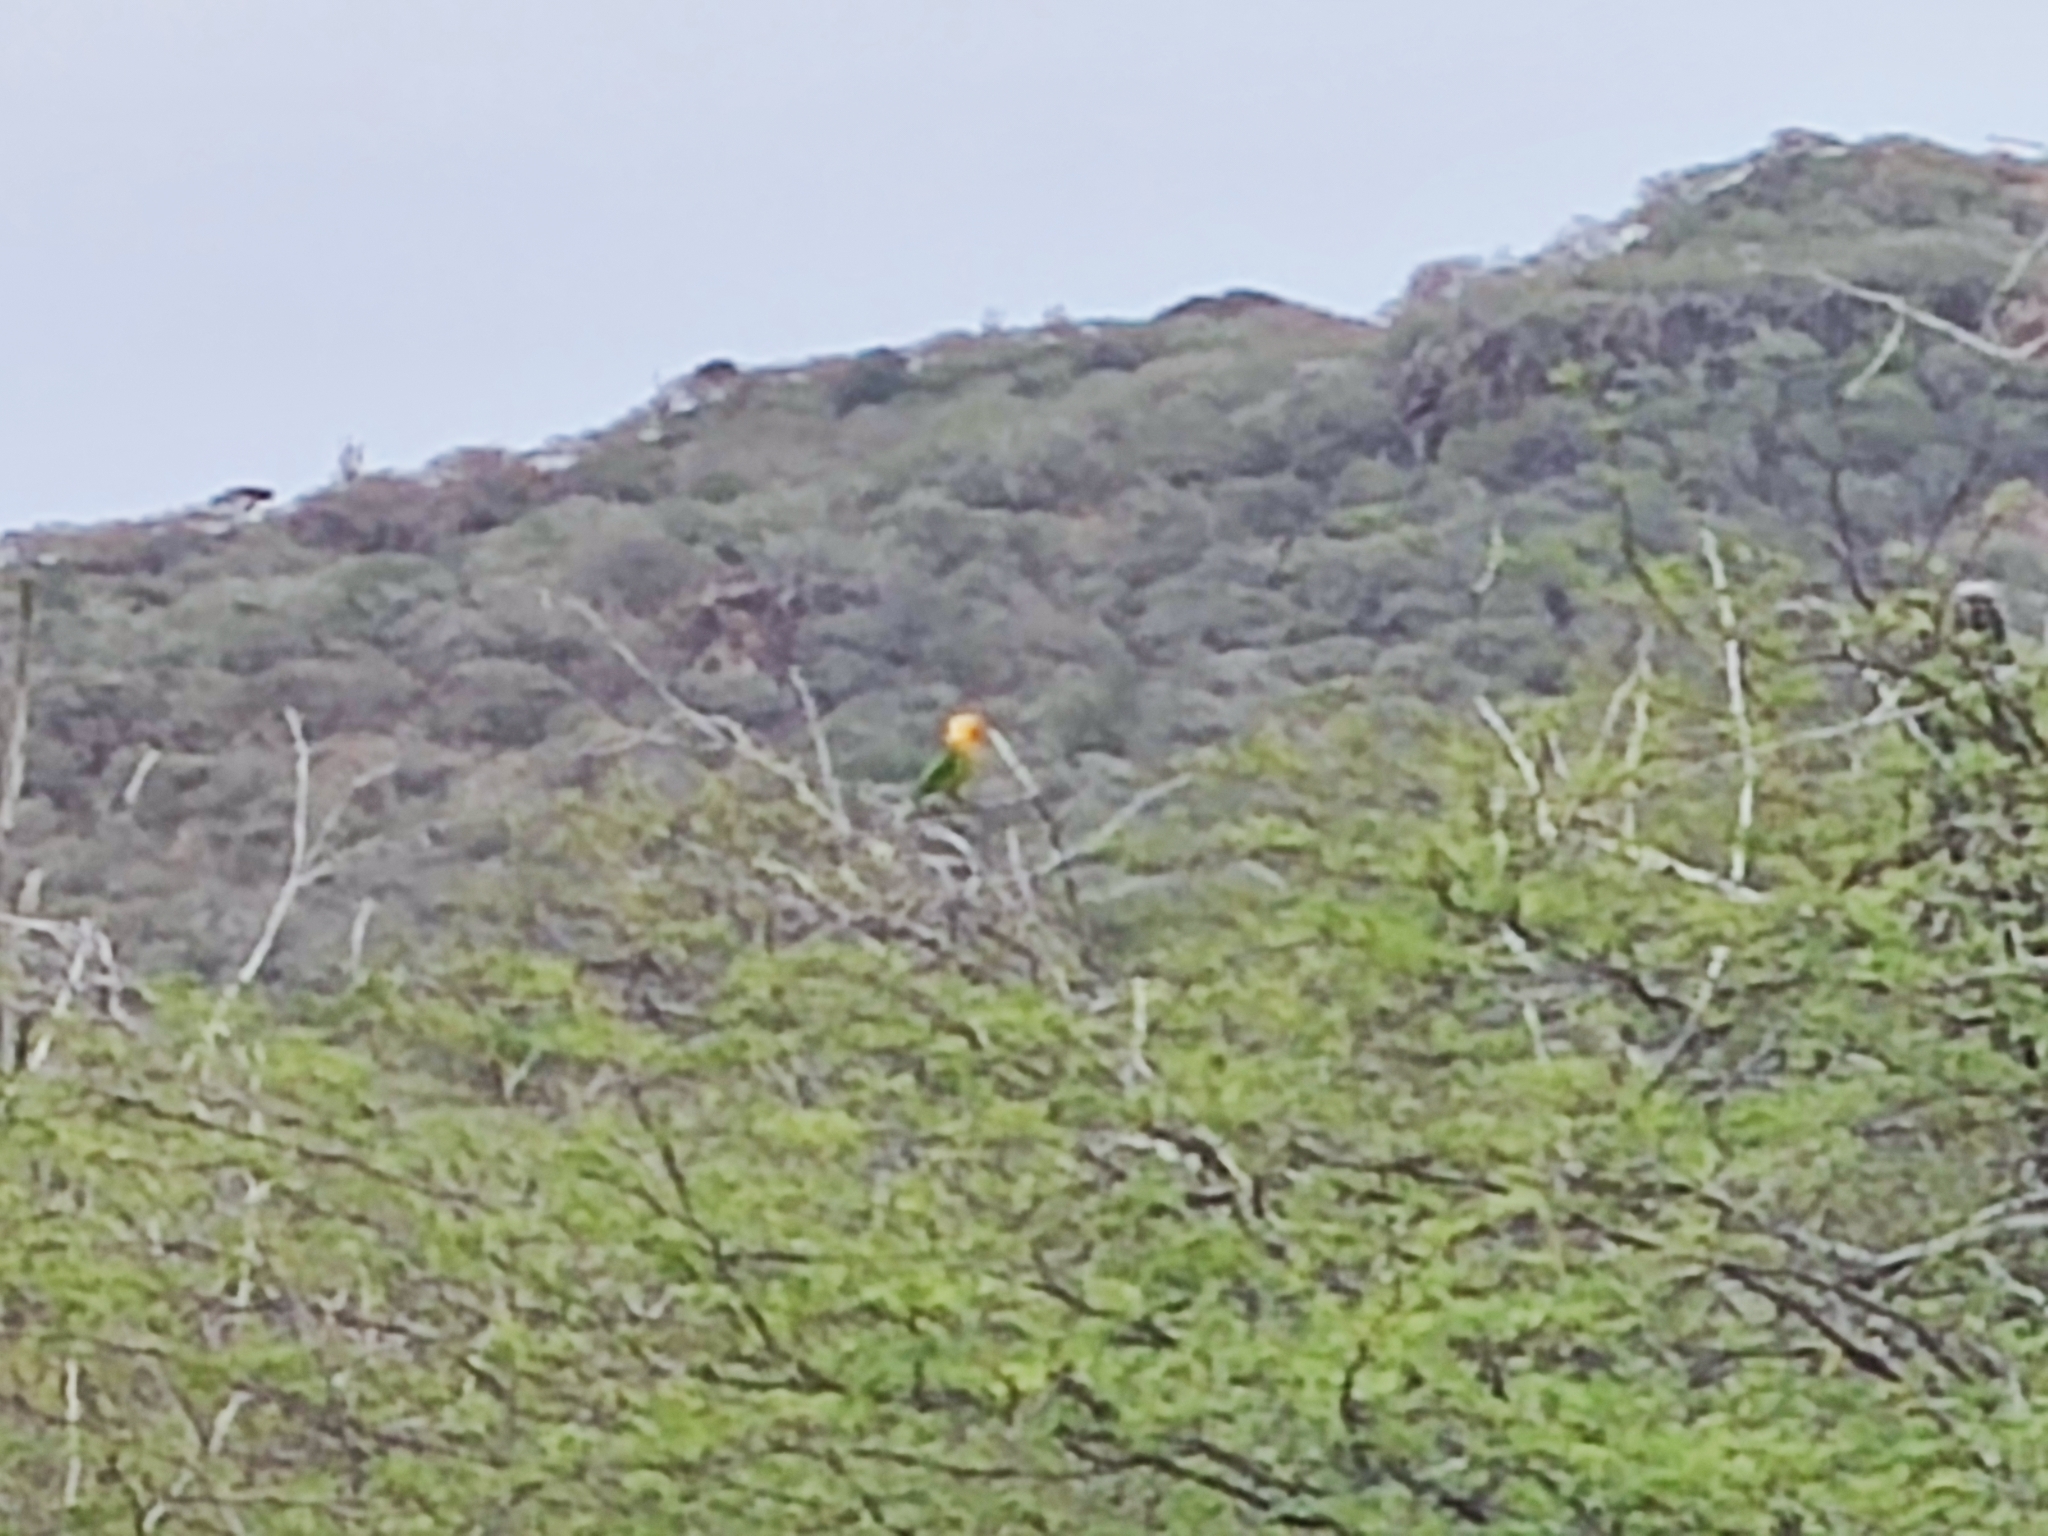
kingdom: Animalia
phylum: Chordata
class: Aves
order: Psittaciformes
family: Psittacidae
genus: Aratinga
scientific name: Aratinga pertinax
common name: Brown-throated parakeet
